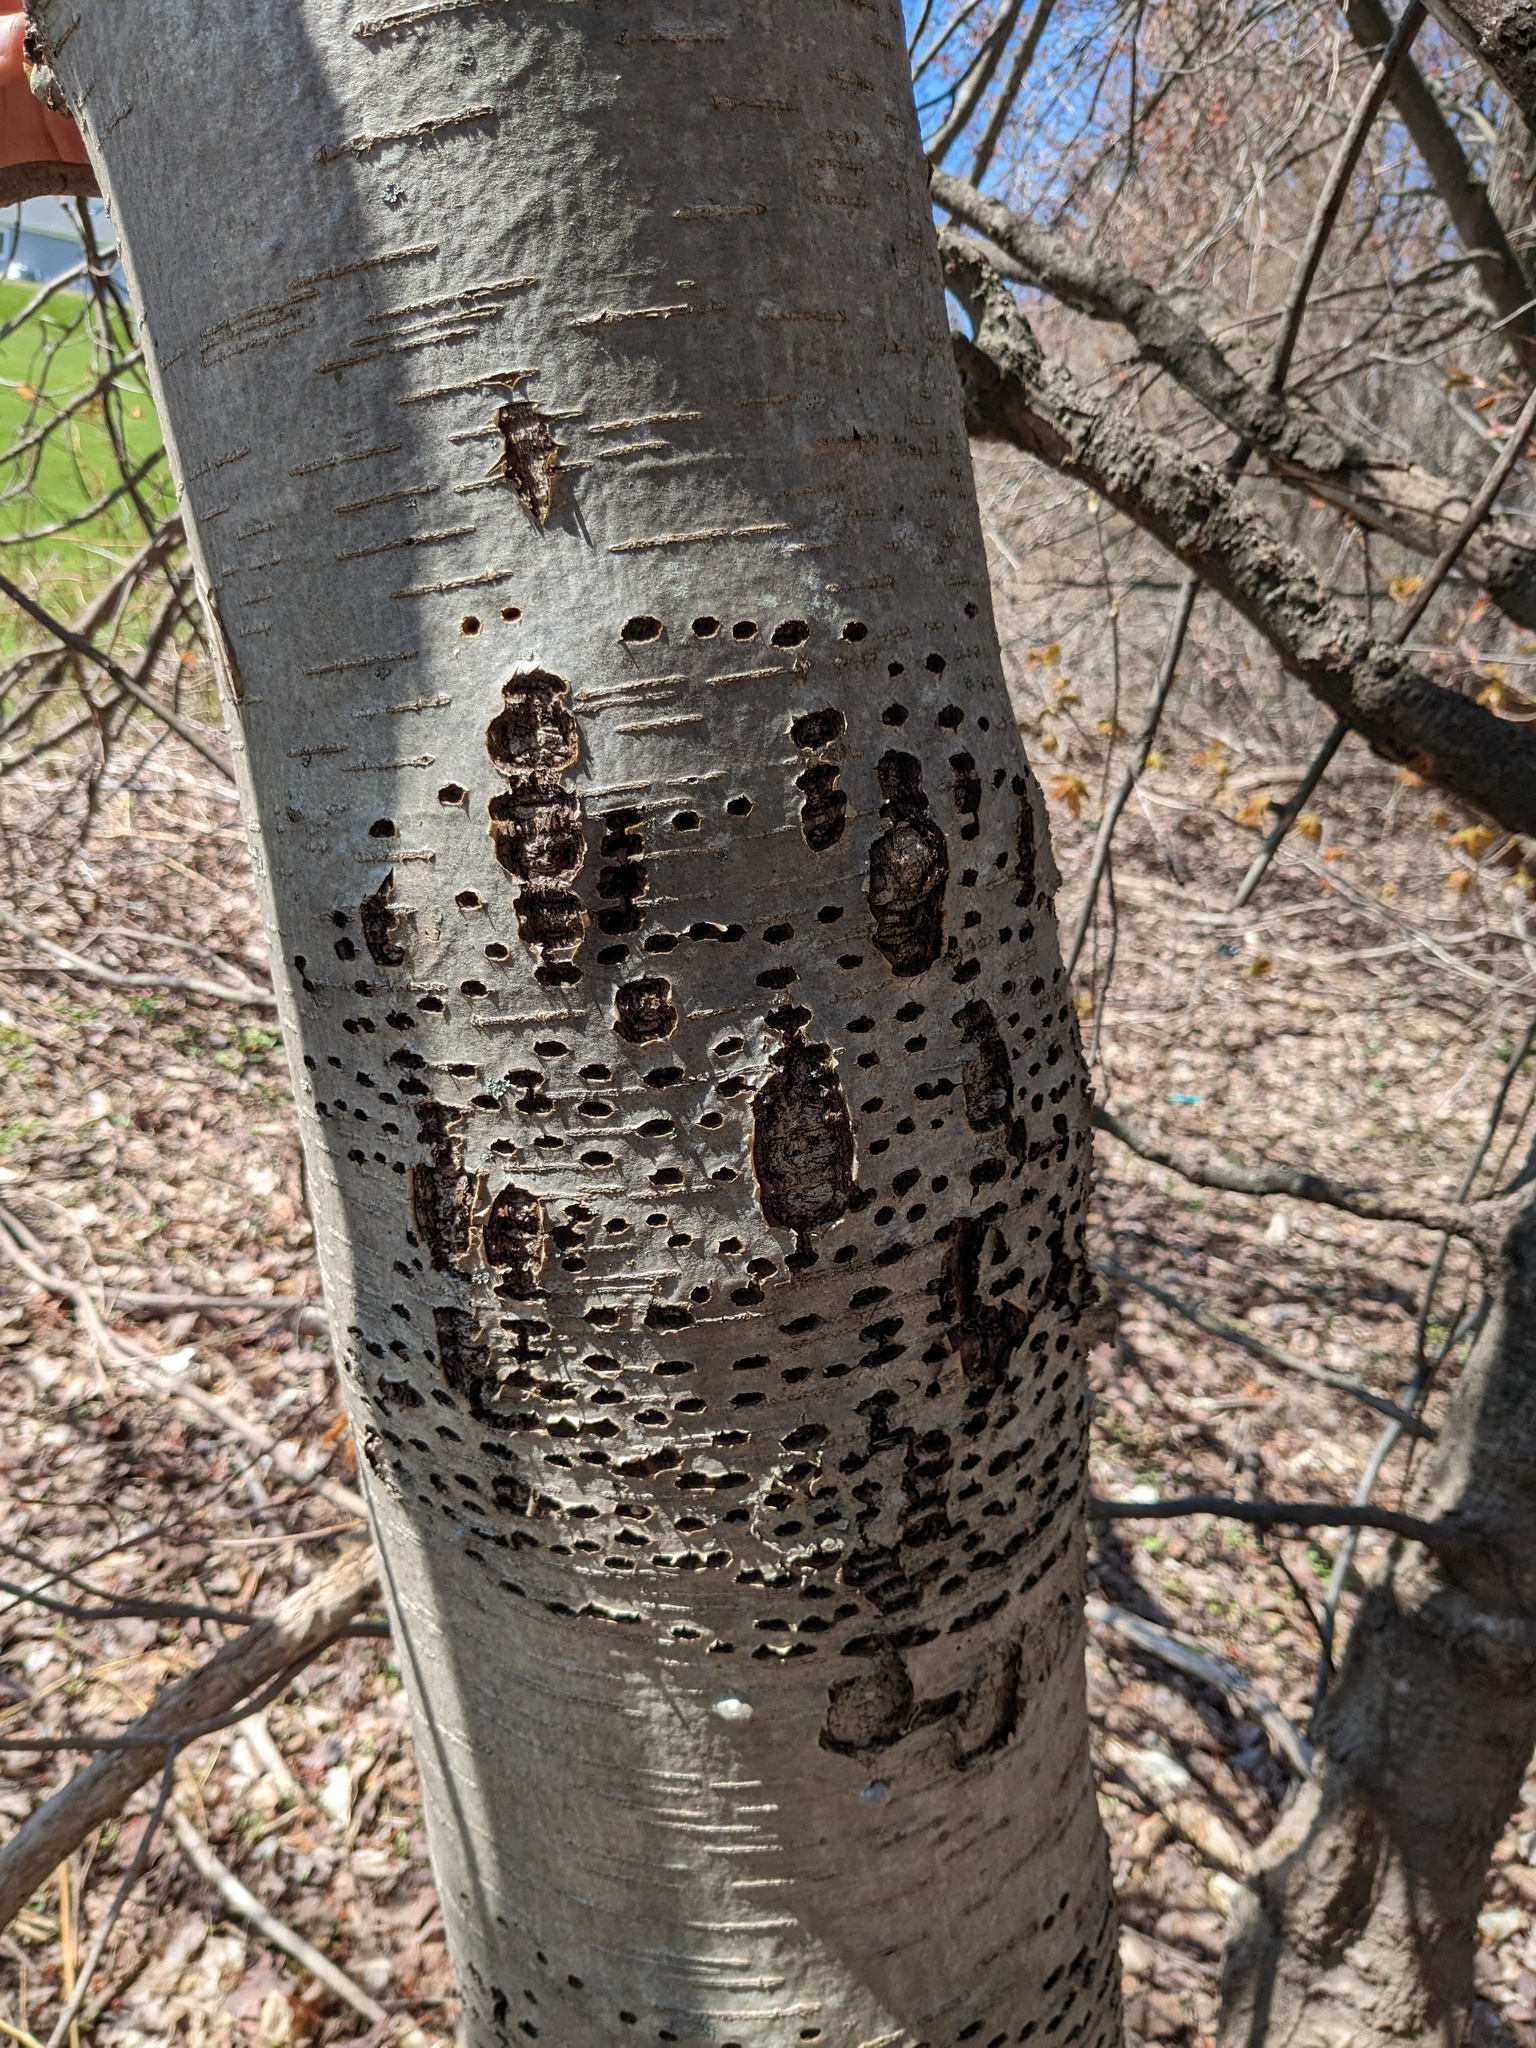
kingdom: Animalia
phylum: Chordata
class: Aves
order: Piciformes
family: Picidae
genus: Sphyrapicus
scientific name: Sphyrapicus varius
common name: Yellow-bellied sapsucker
